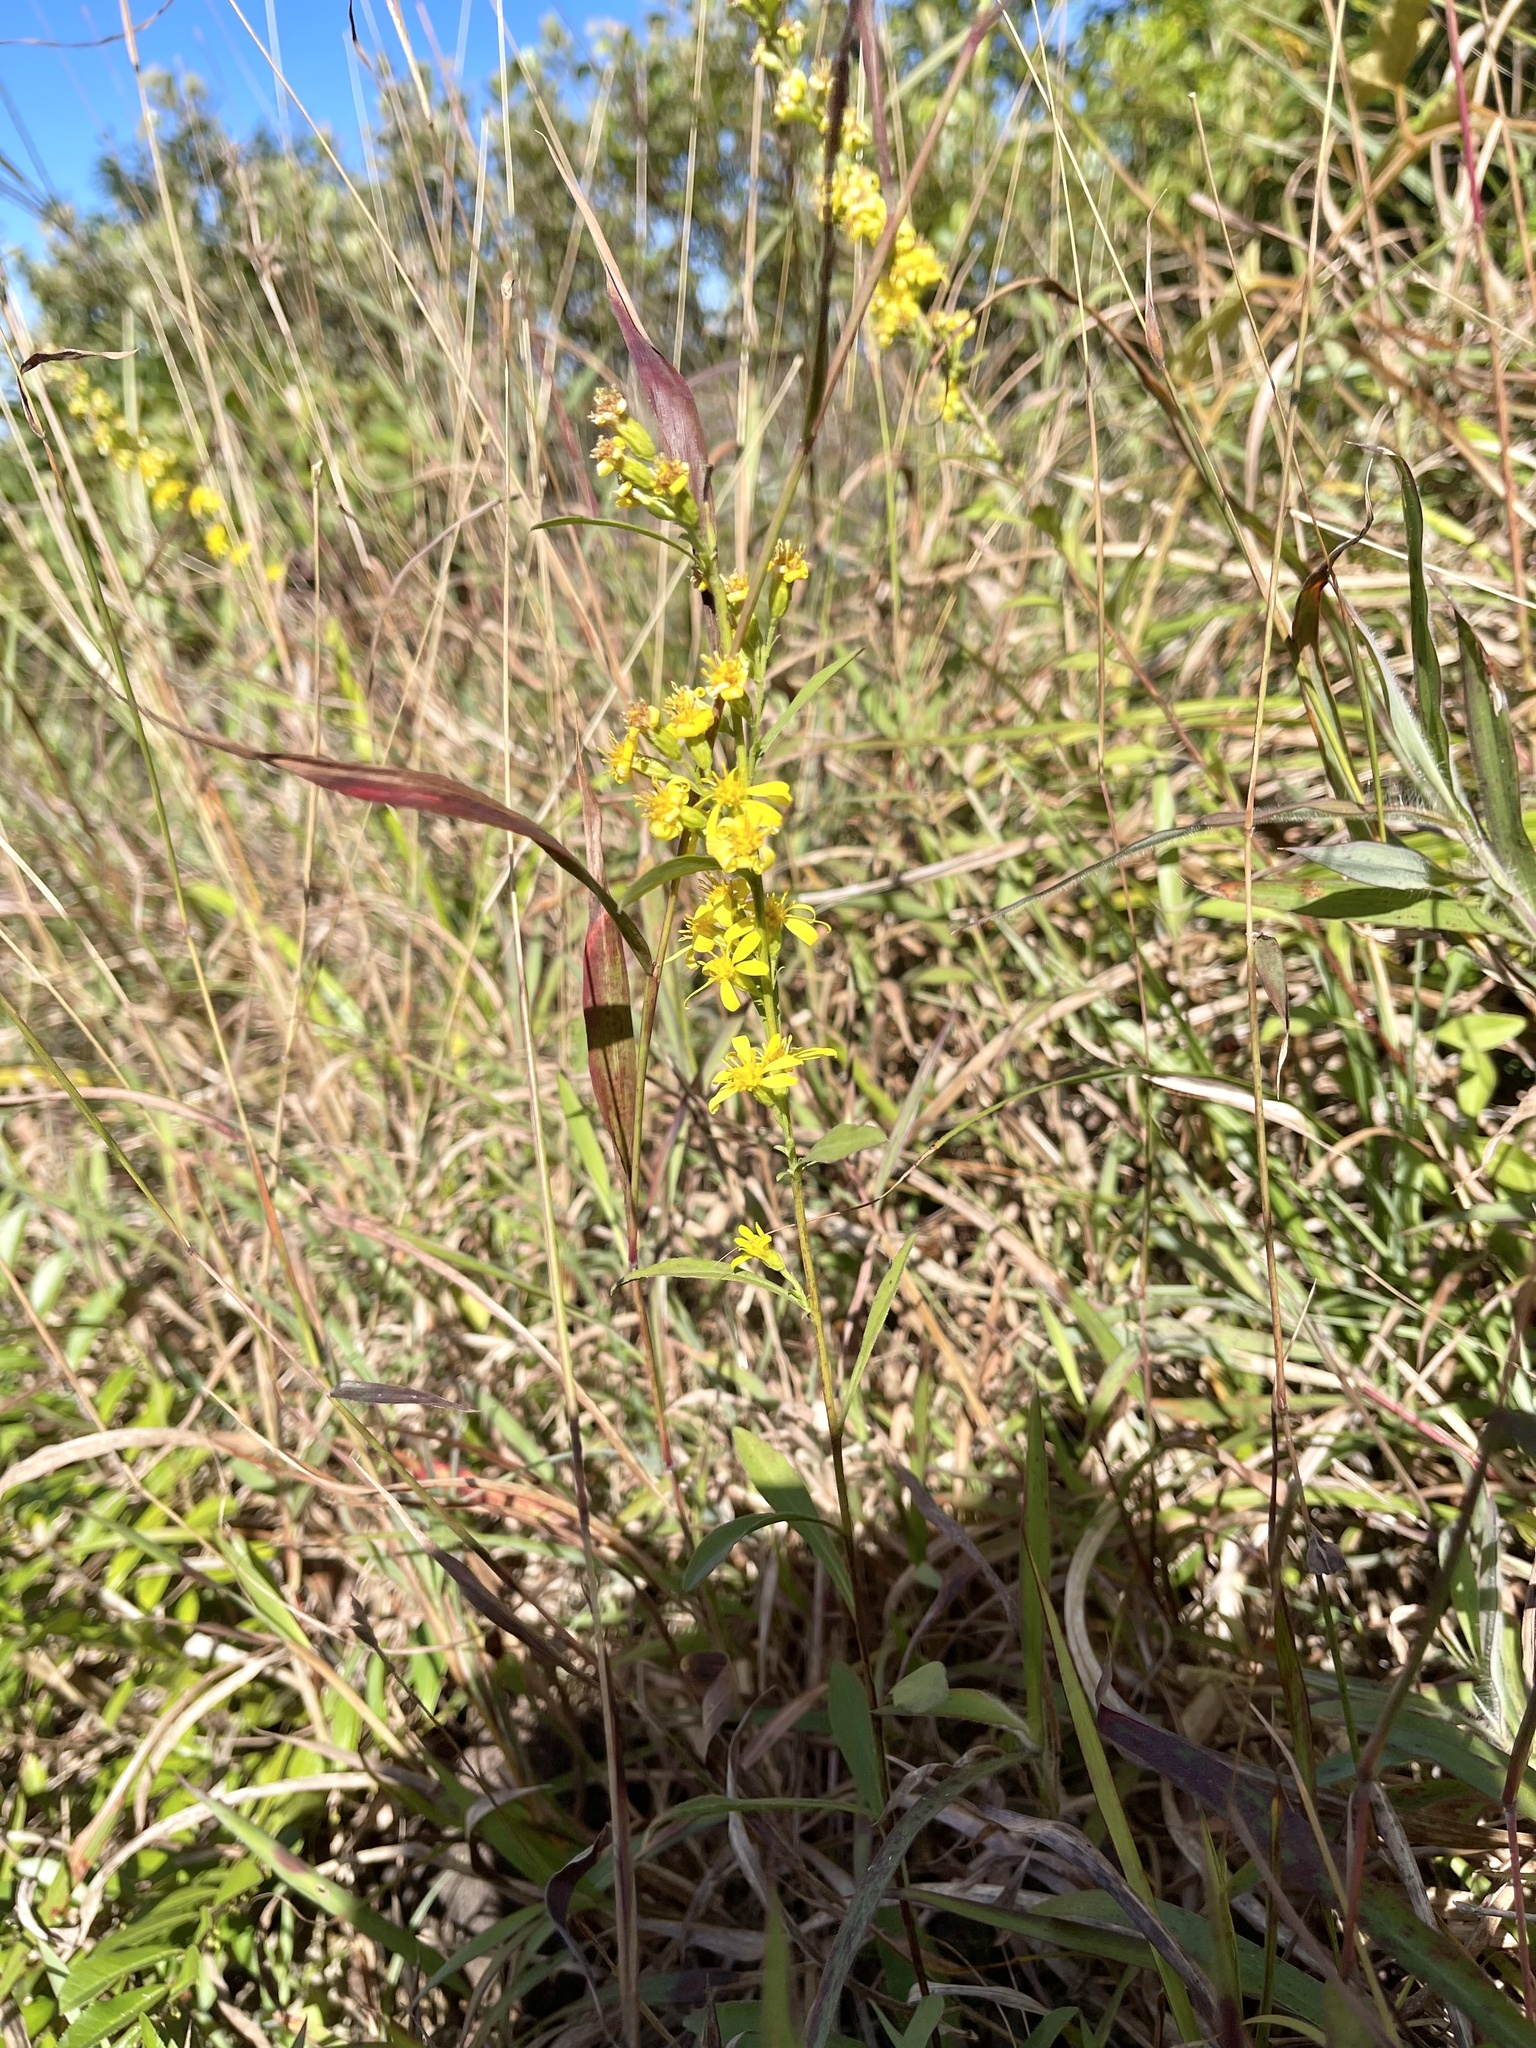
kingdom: Plantae
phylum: Tracheophyta
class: Magnoliopsida
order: Asterales
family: Asteraceae
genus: Solidago
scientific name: Solidago decurrens
